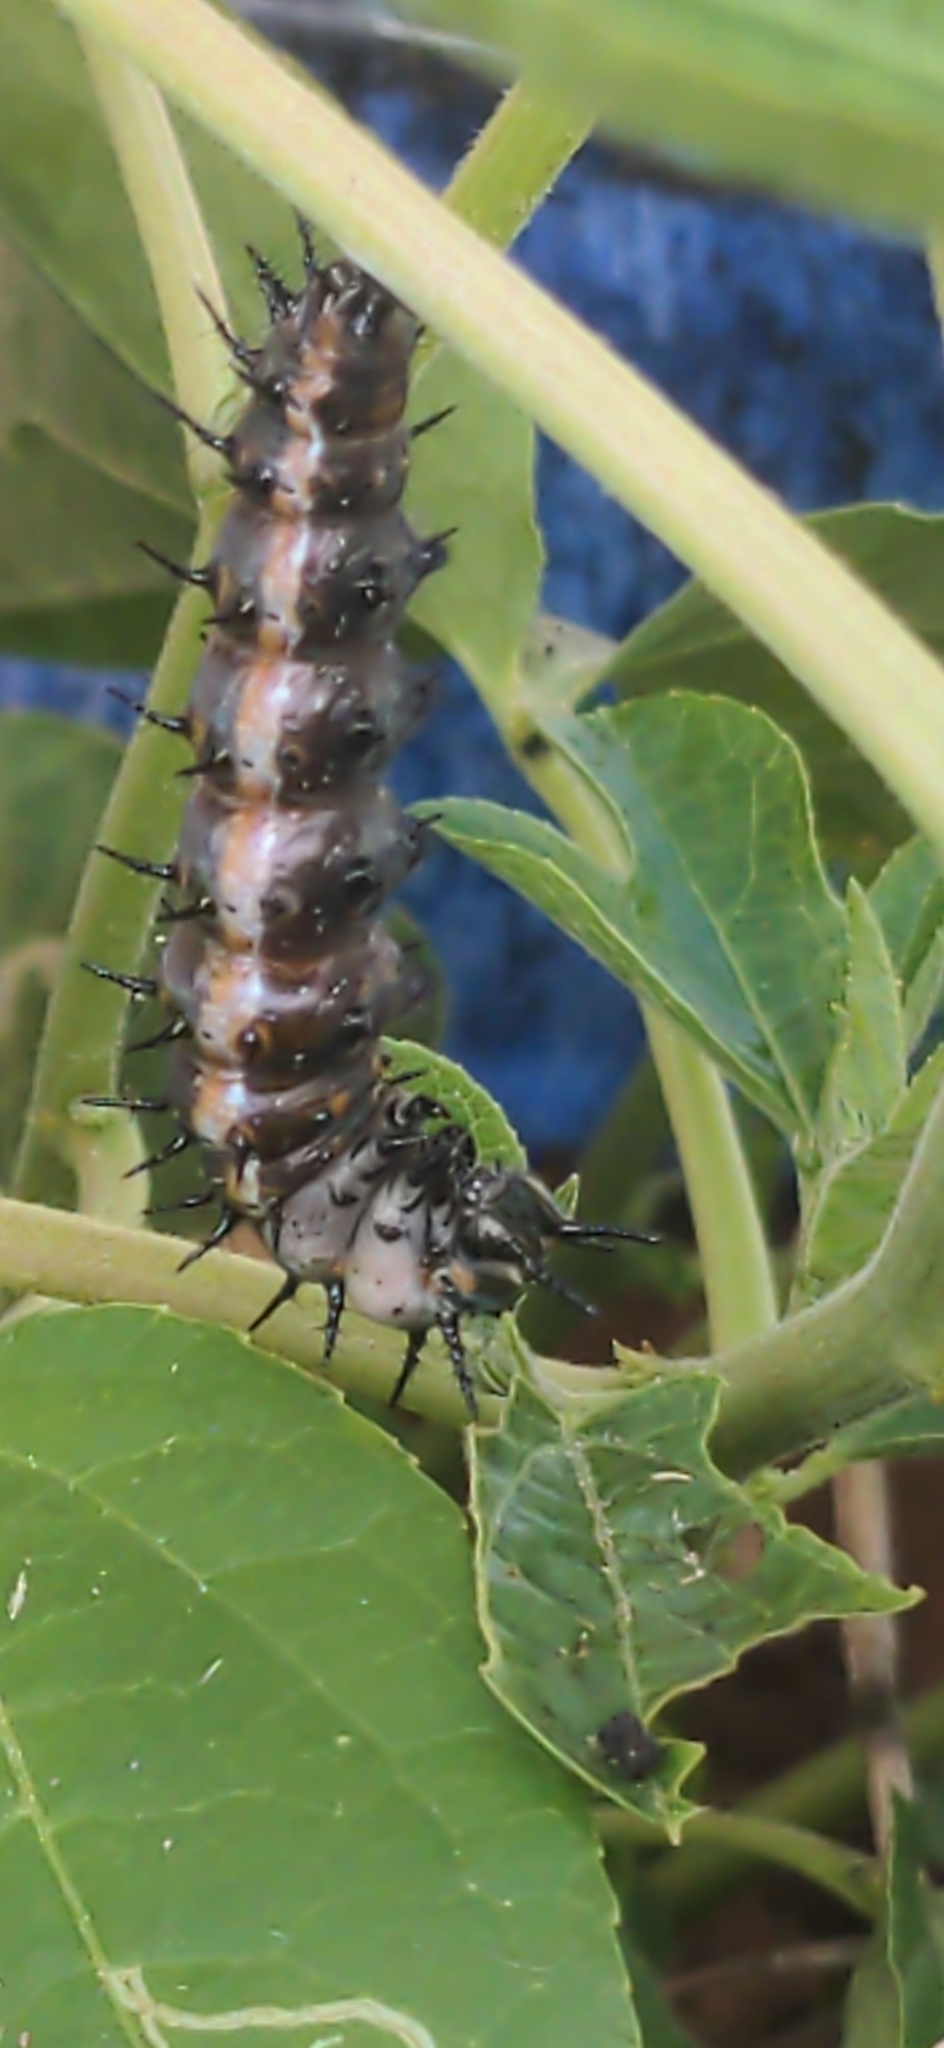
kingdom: Animalia
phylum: Arthropoda
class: Insecta
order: Lepidoptera
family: Nymphalidae
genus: Dione
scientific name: Dione vanillae
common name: Gulf fritillary
